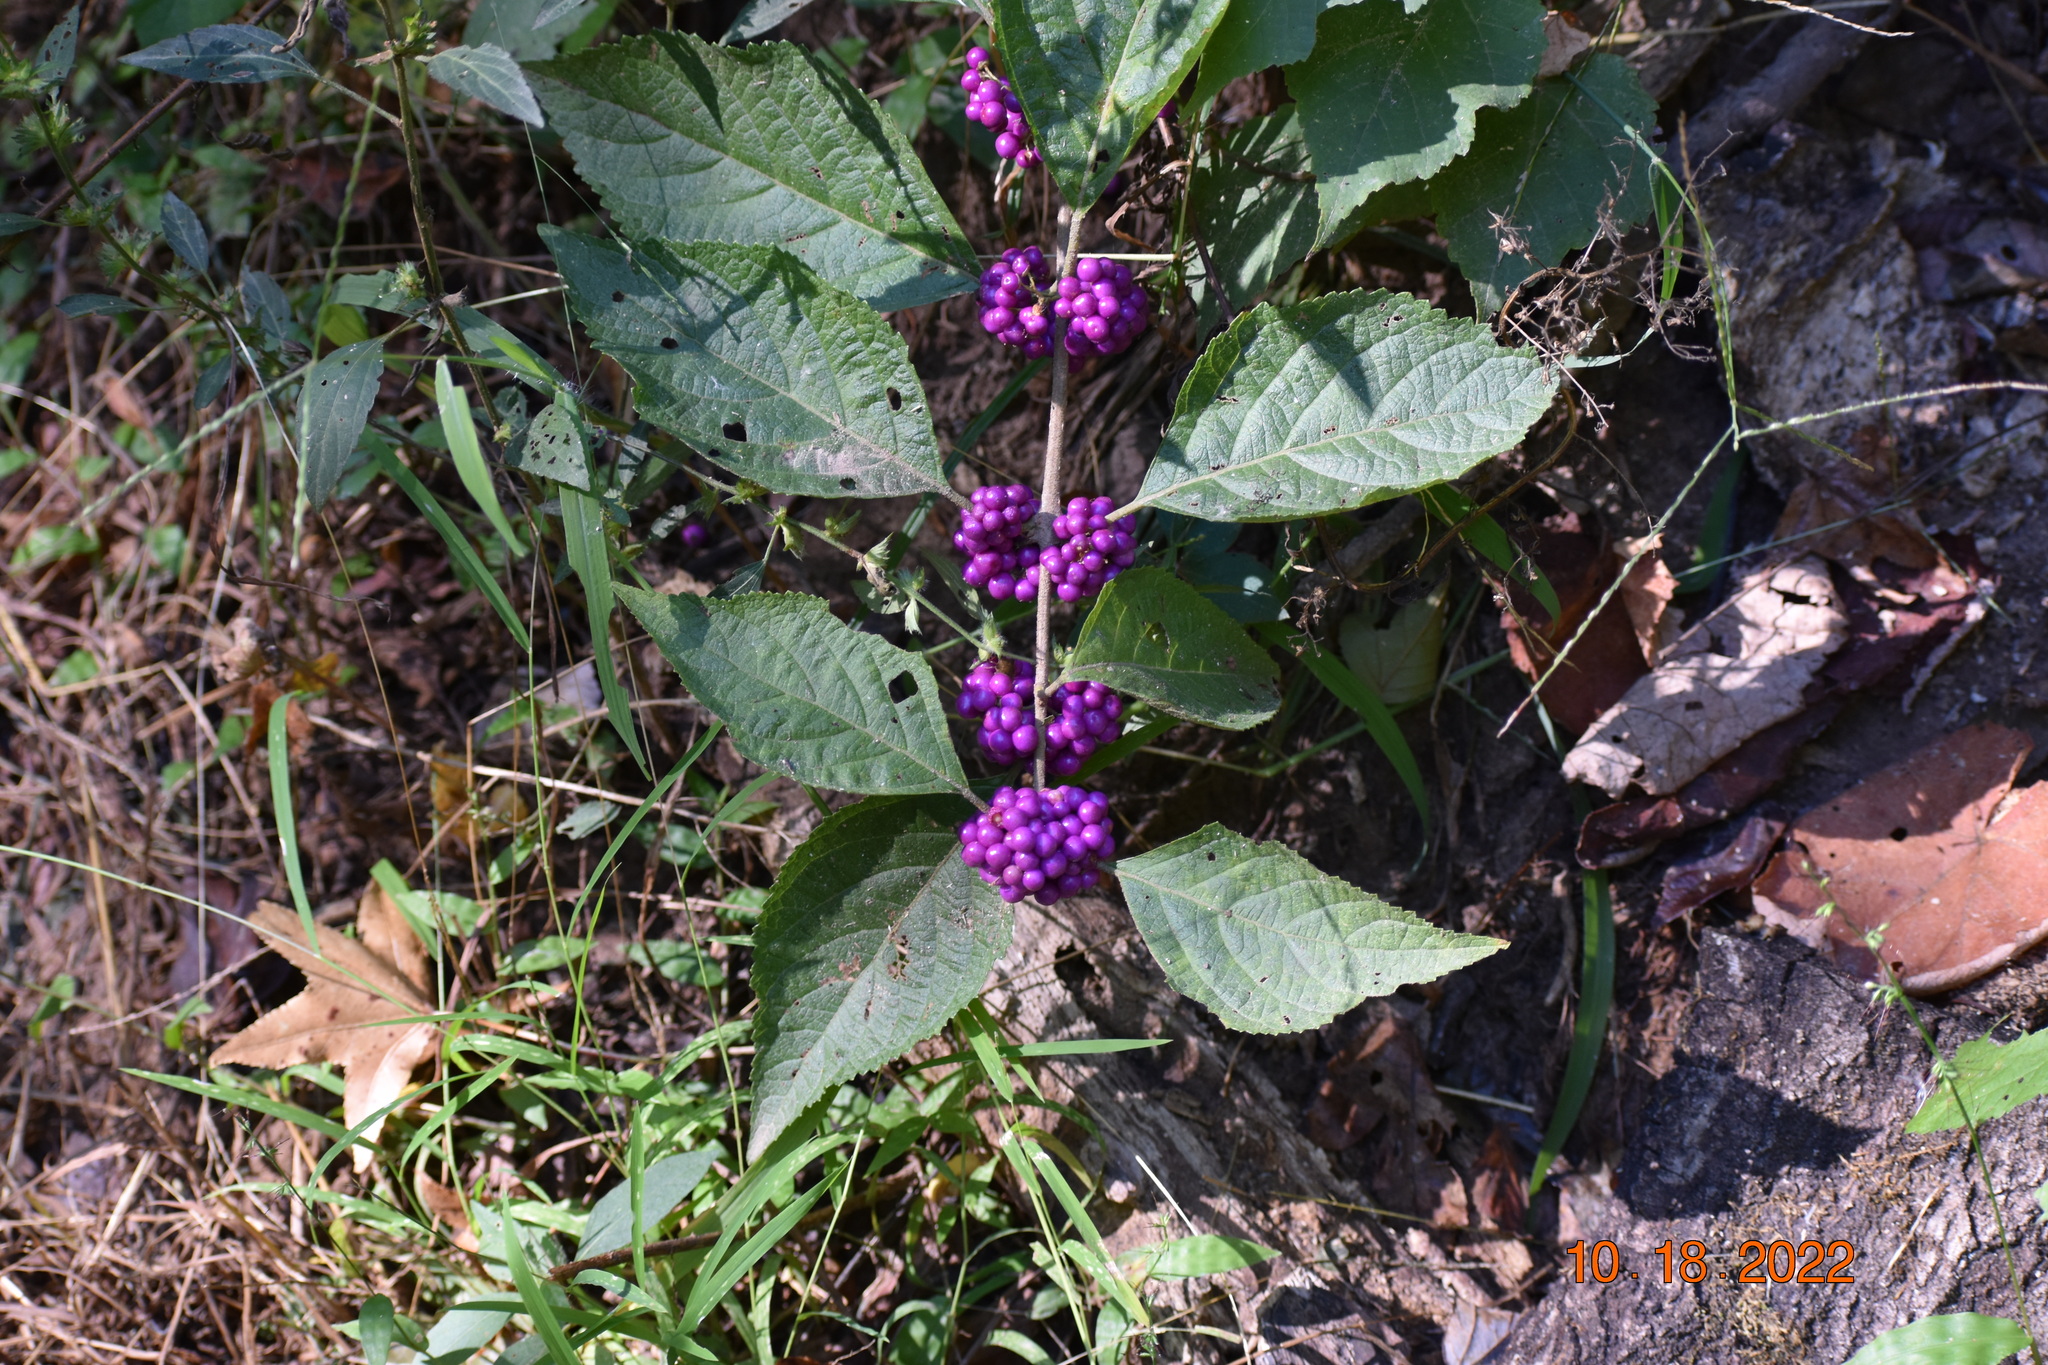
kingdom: Plantae
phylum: Tracheophyta
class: Magnoliopsida
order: Lamiales
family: Lamiaceae
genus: Callicarpa
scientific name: Callicarpa americana
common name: American beautyberry
